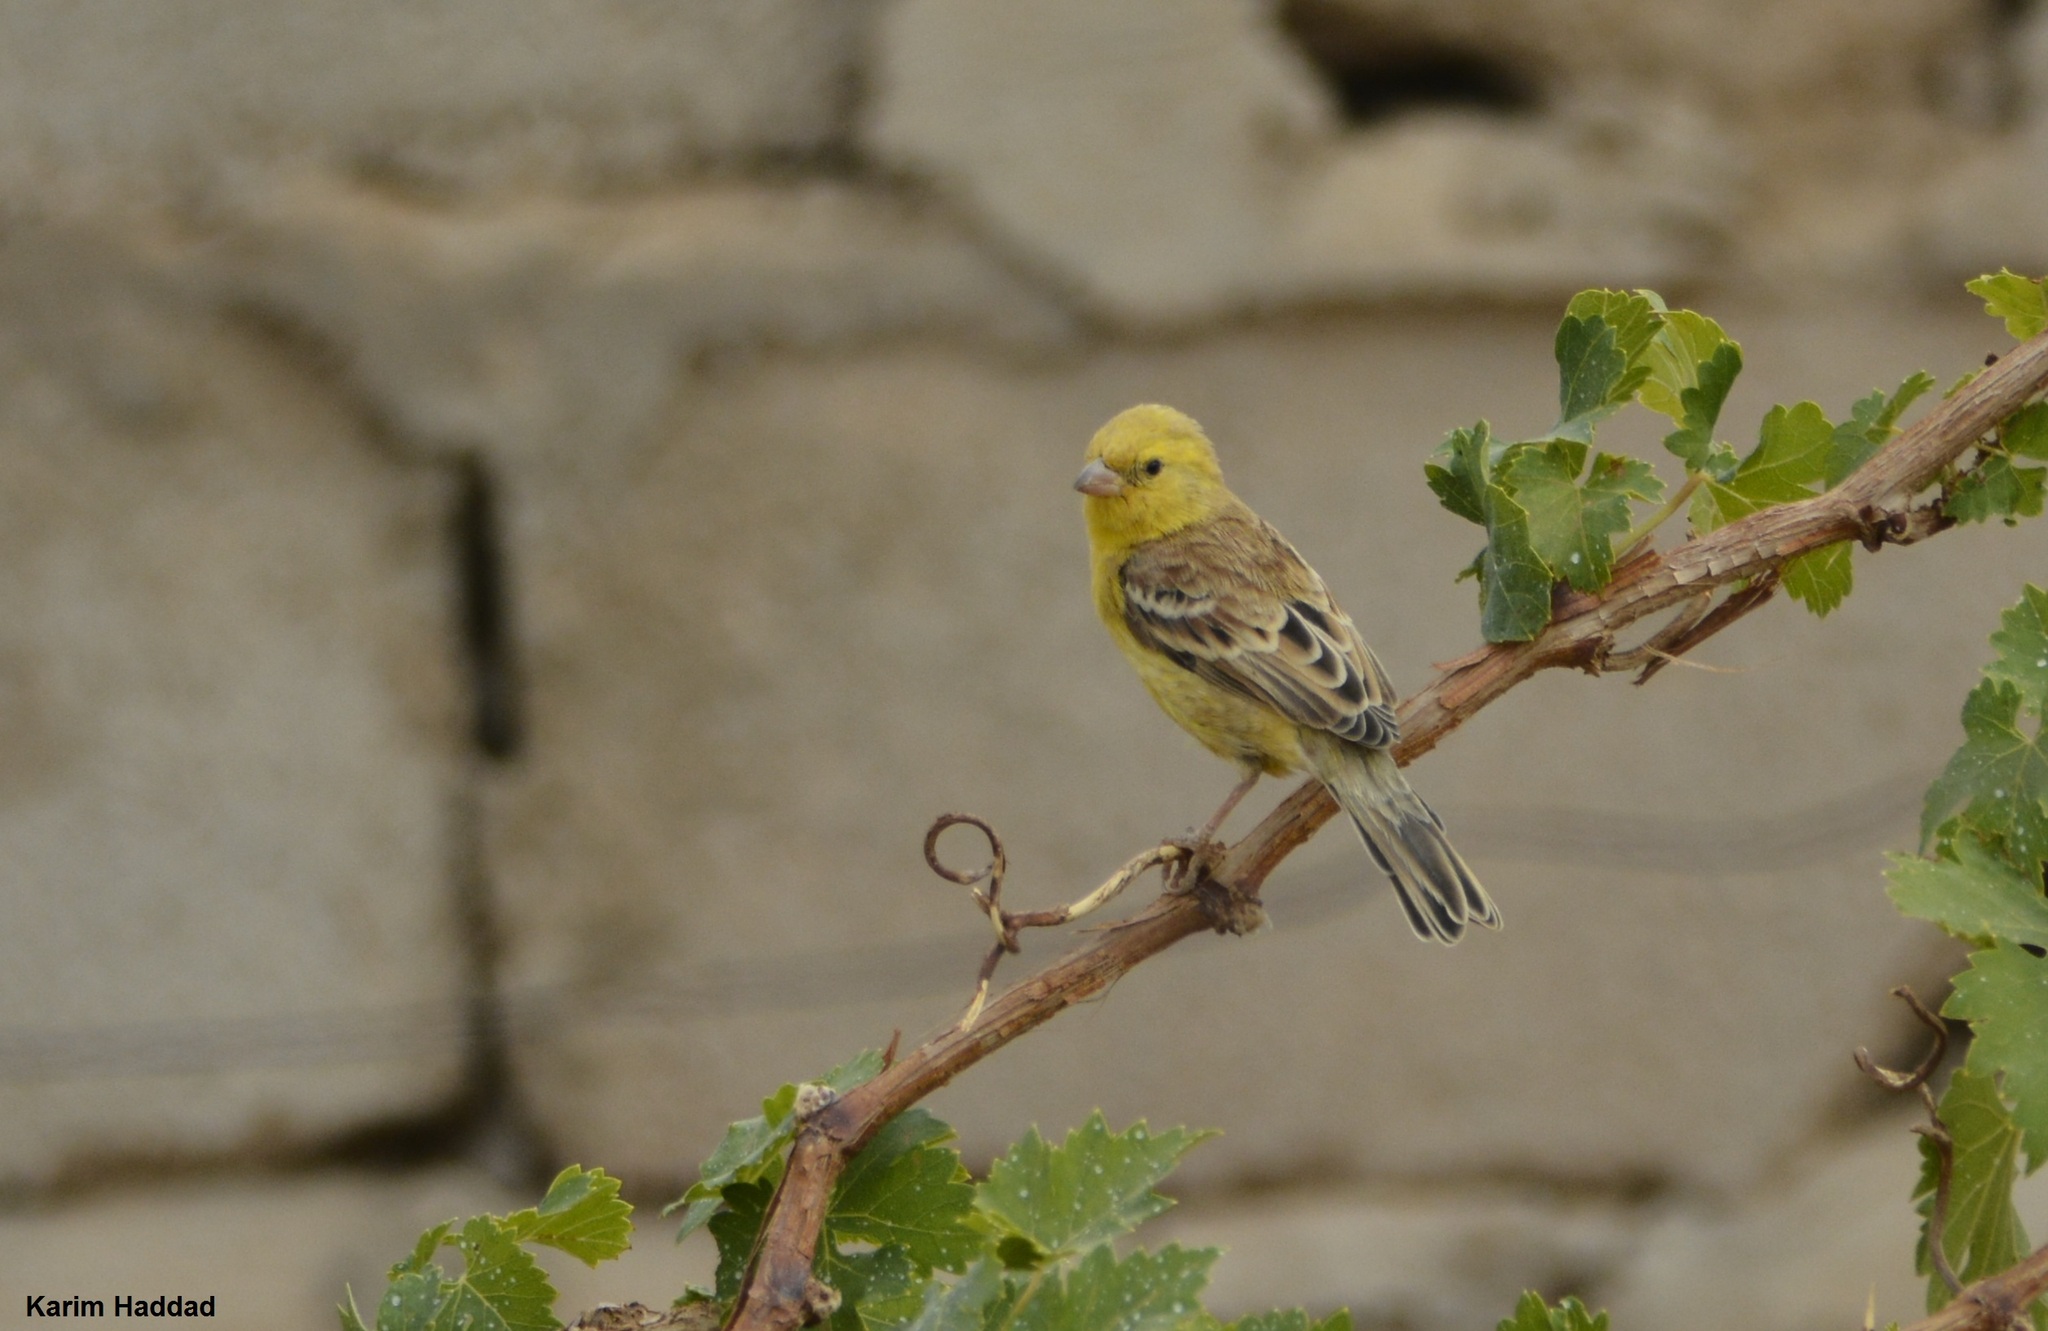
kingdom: Animalia
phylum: Chordata
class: Aves
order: Passeriformes
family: Passeridae
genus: Passer
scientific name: Passer luteus
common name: Sudan golden sparrow
